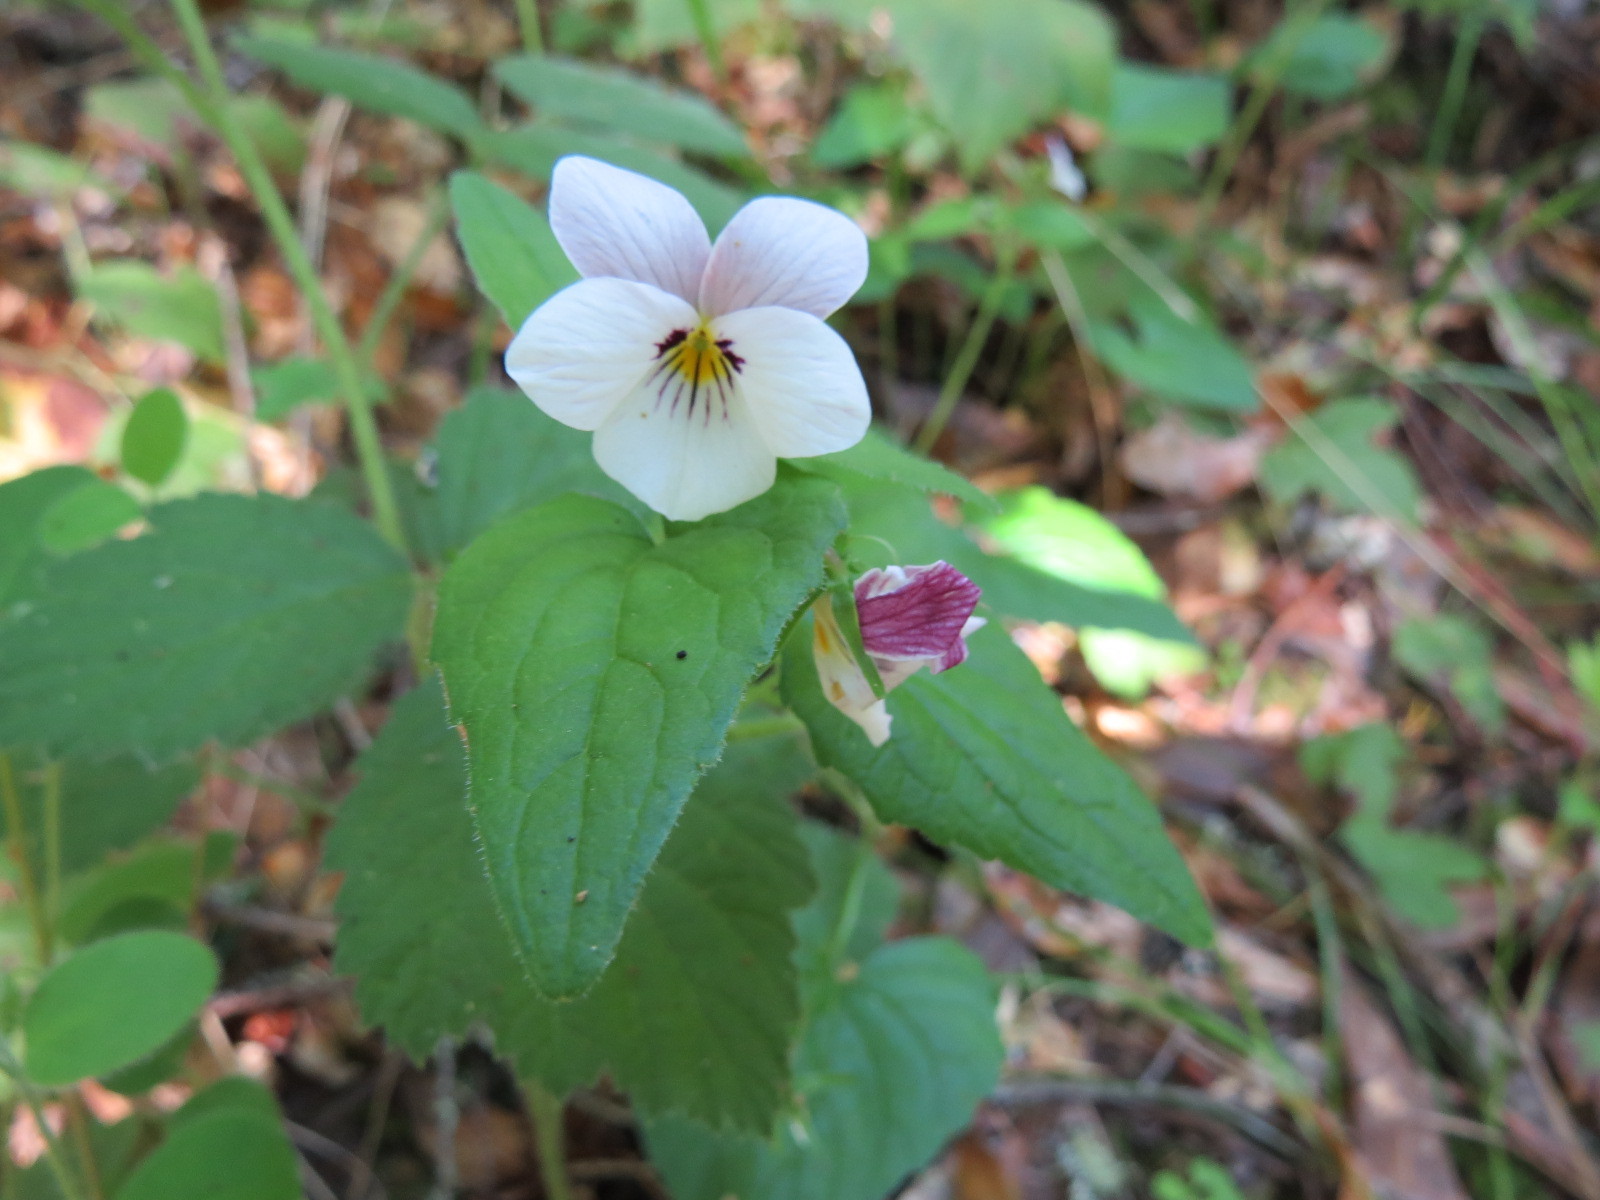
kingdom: Plantae
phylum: Tracheophyta
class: Magnoliopsida
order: Malpighiales
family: Violaceae
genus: Viola
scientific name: Viola ocellata
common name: Western heart's ease
